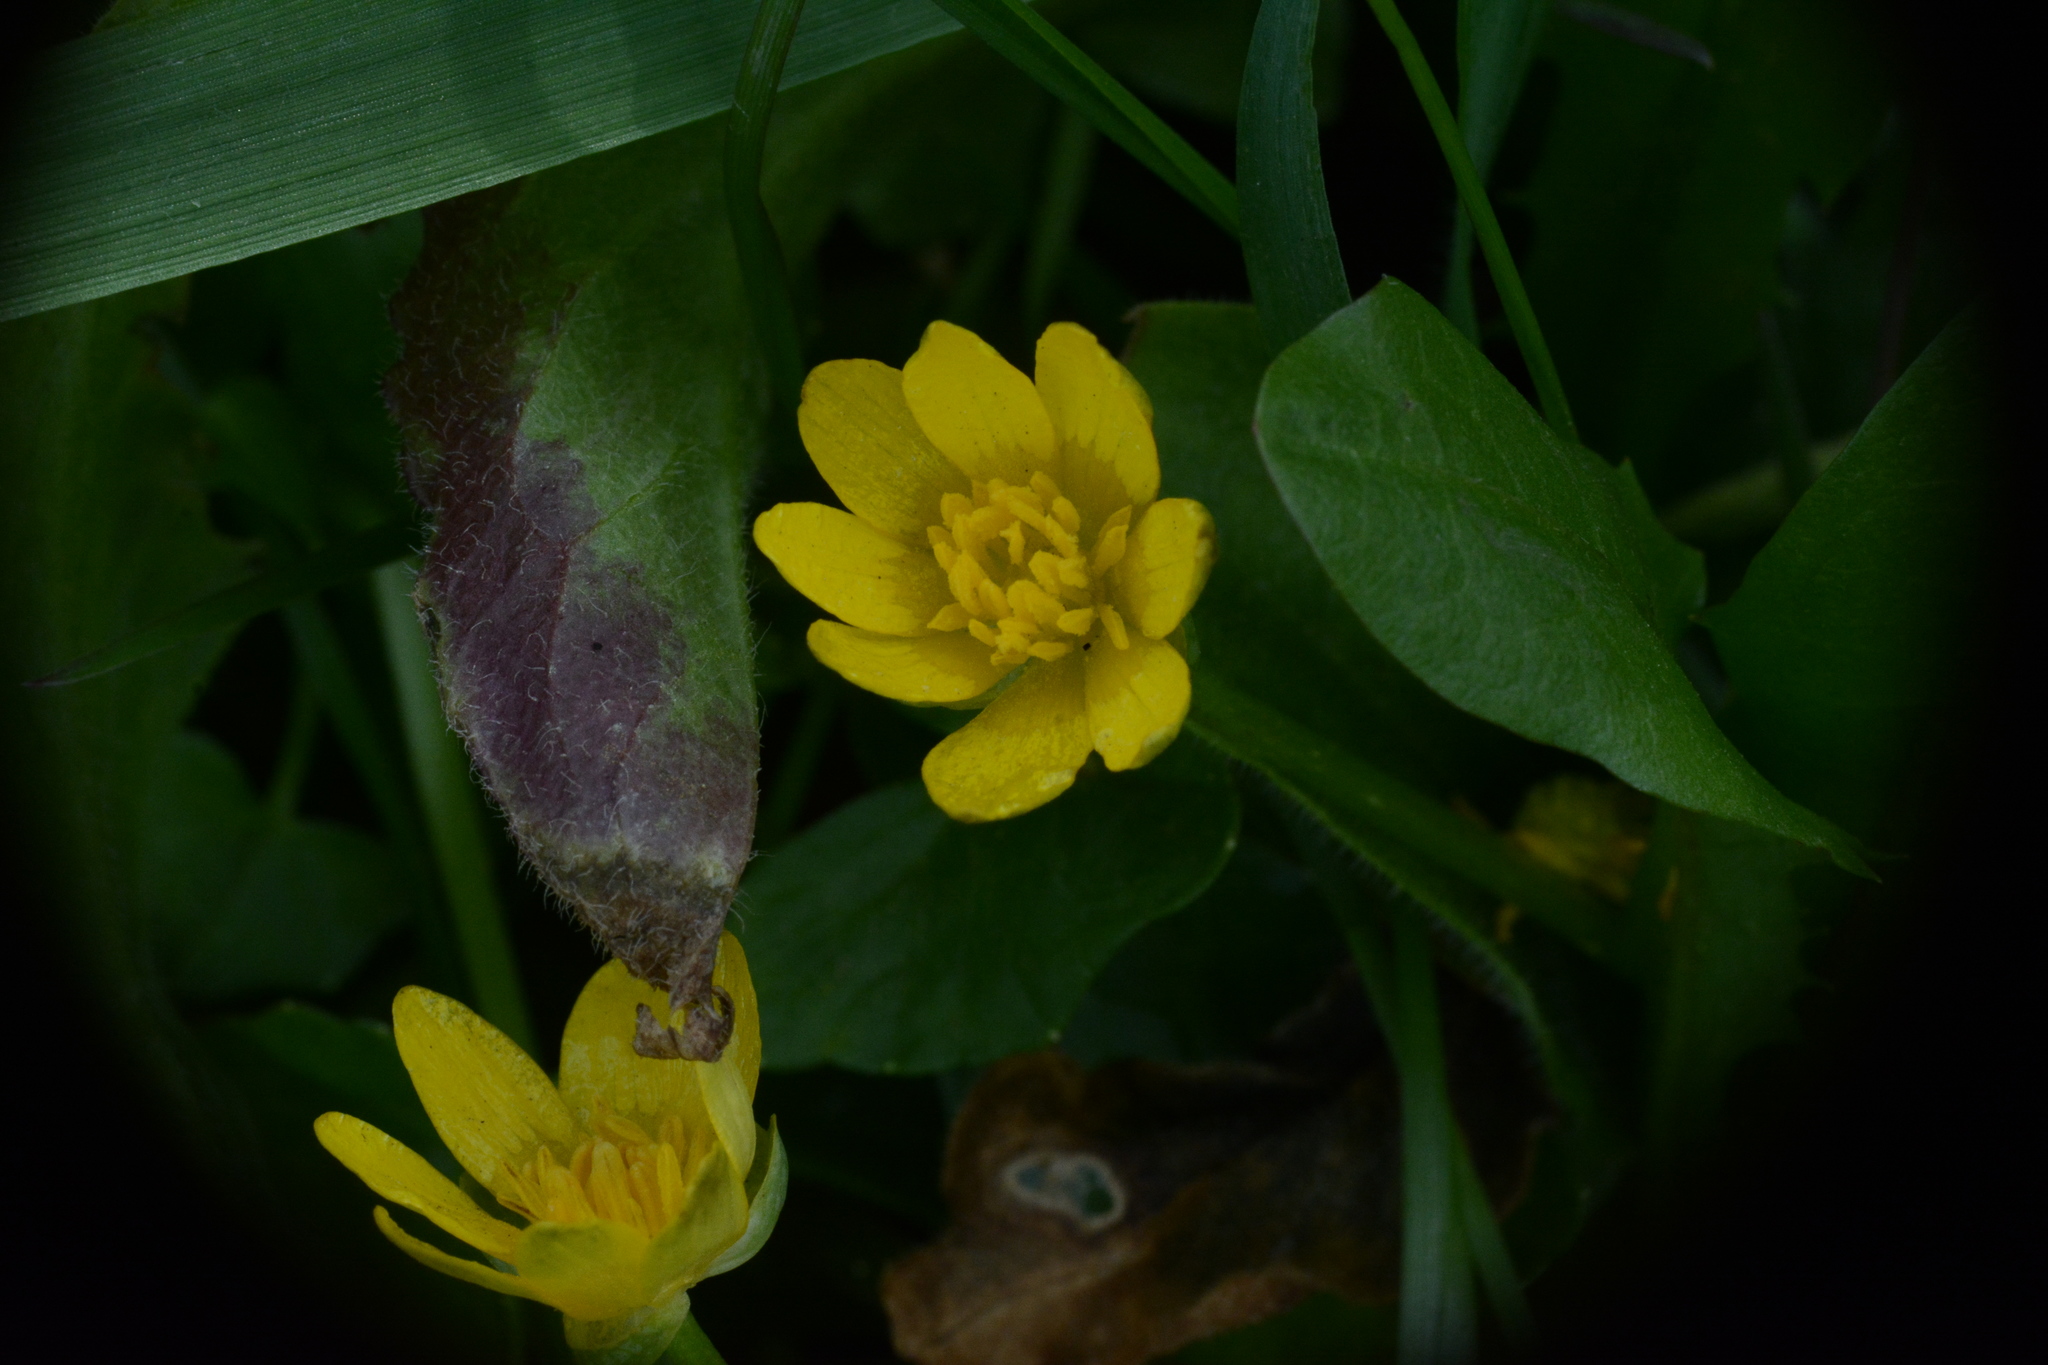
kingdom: Plantae
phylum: Tracheophyta
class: Magnoliopsida
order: Ranunculales
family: Ranunculaceae
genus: Ficaria
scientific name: Ficaria verna
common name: Lesser celandine
